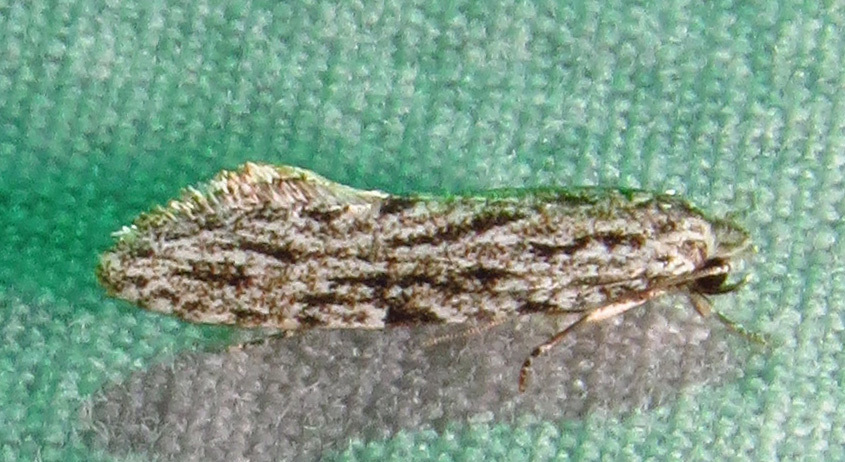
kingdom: Animalia
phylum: Arthropoda
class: Insecta
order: Lepidoptera
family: Tineidae
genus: Nemapogon
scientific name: Nemapogon multistriatella
